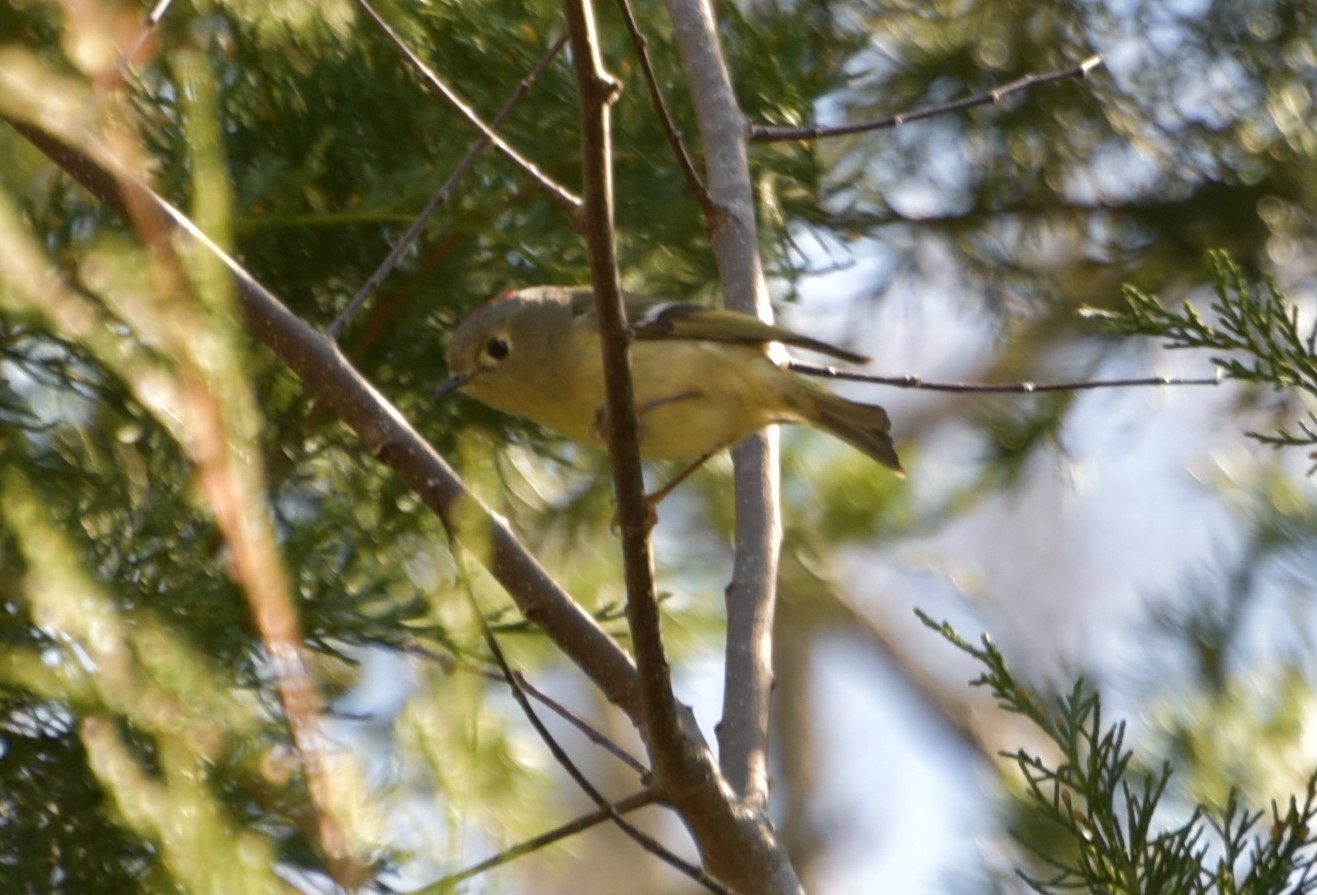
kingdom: Animalia
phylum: Chordata
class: Aves
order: Passeriformes
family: Regulidae
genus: Regulus
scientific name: Regulus calendula
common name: Ruby-crowned kinglet
